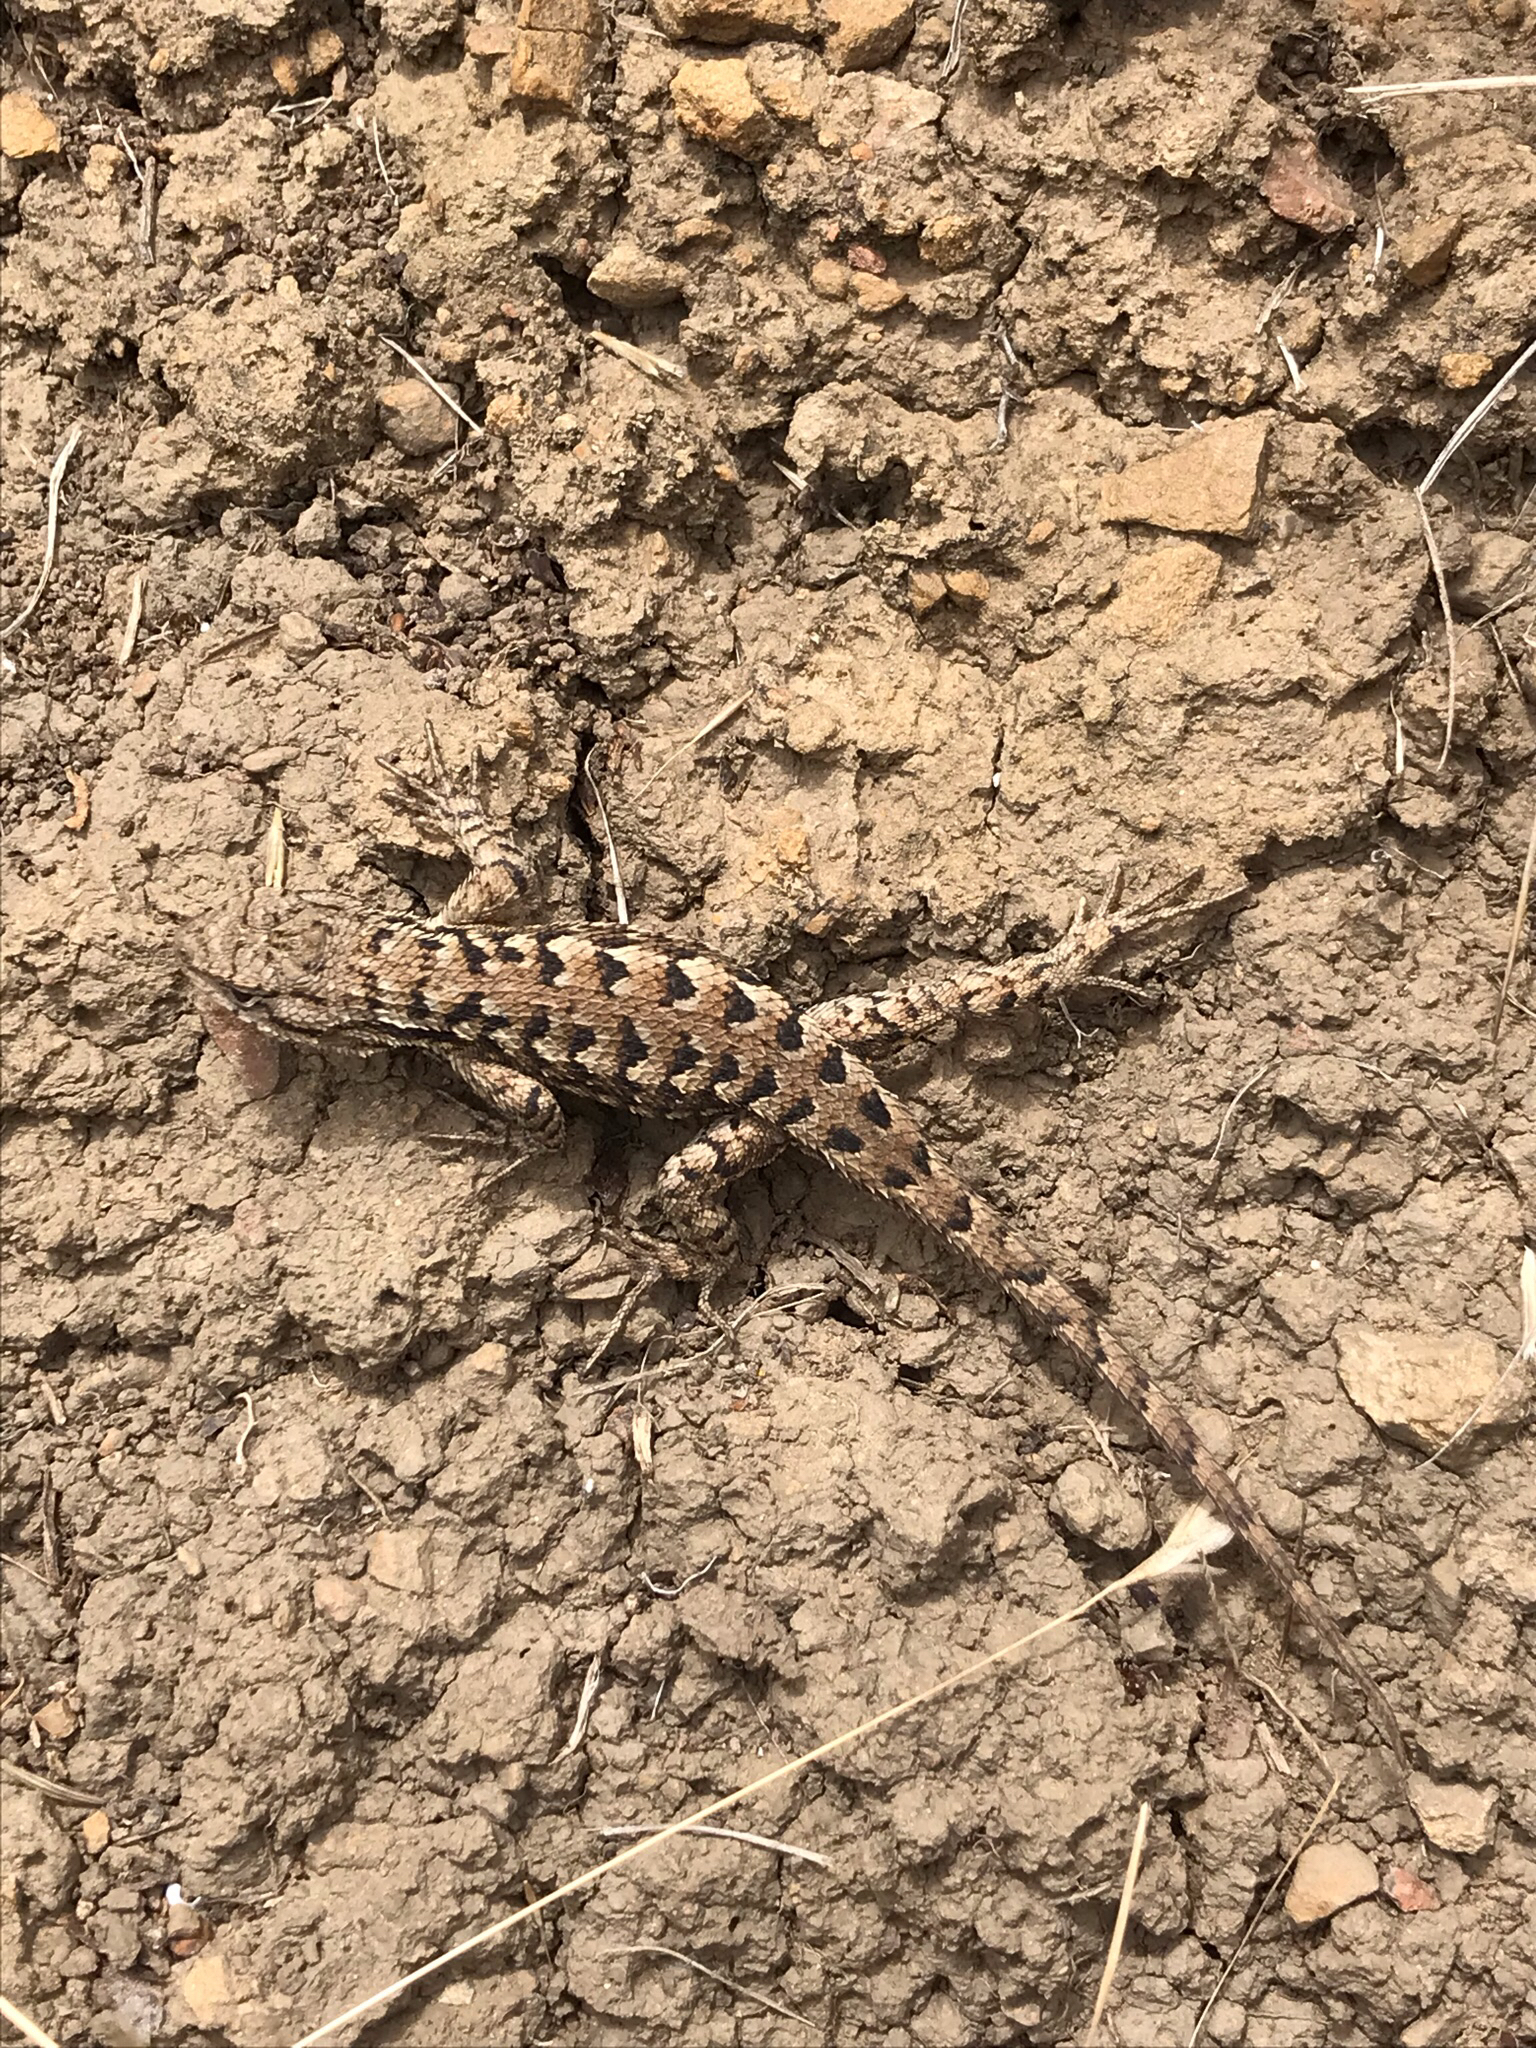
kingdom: Animalia
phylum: Chordata
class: Squamata
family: Phrynosomatidae
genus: Sceloporus
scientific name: Sceloporus occidentalis
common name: Western fence lizard
